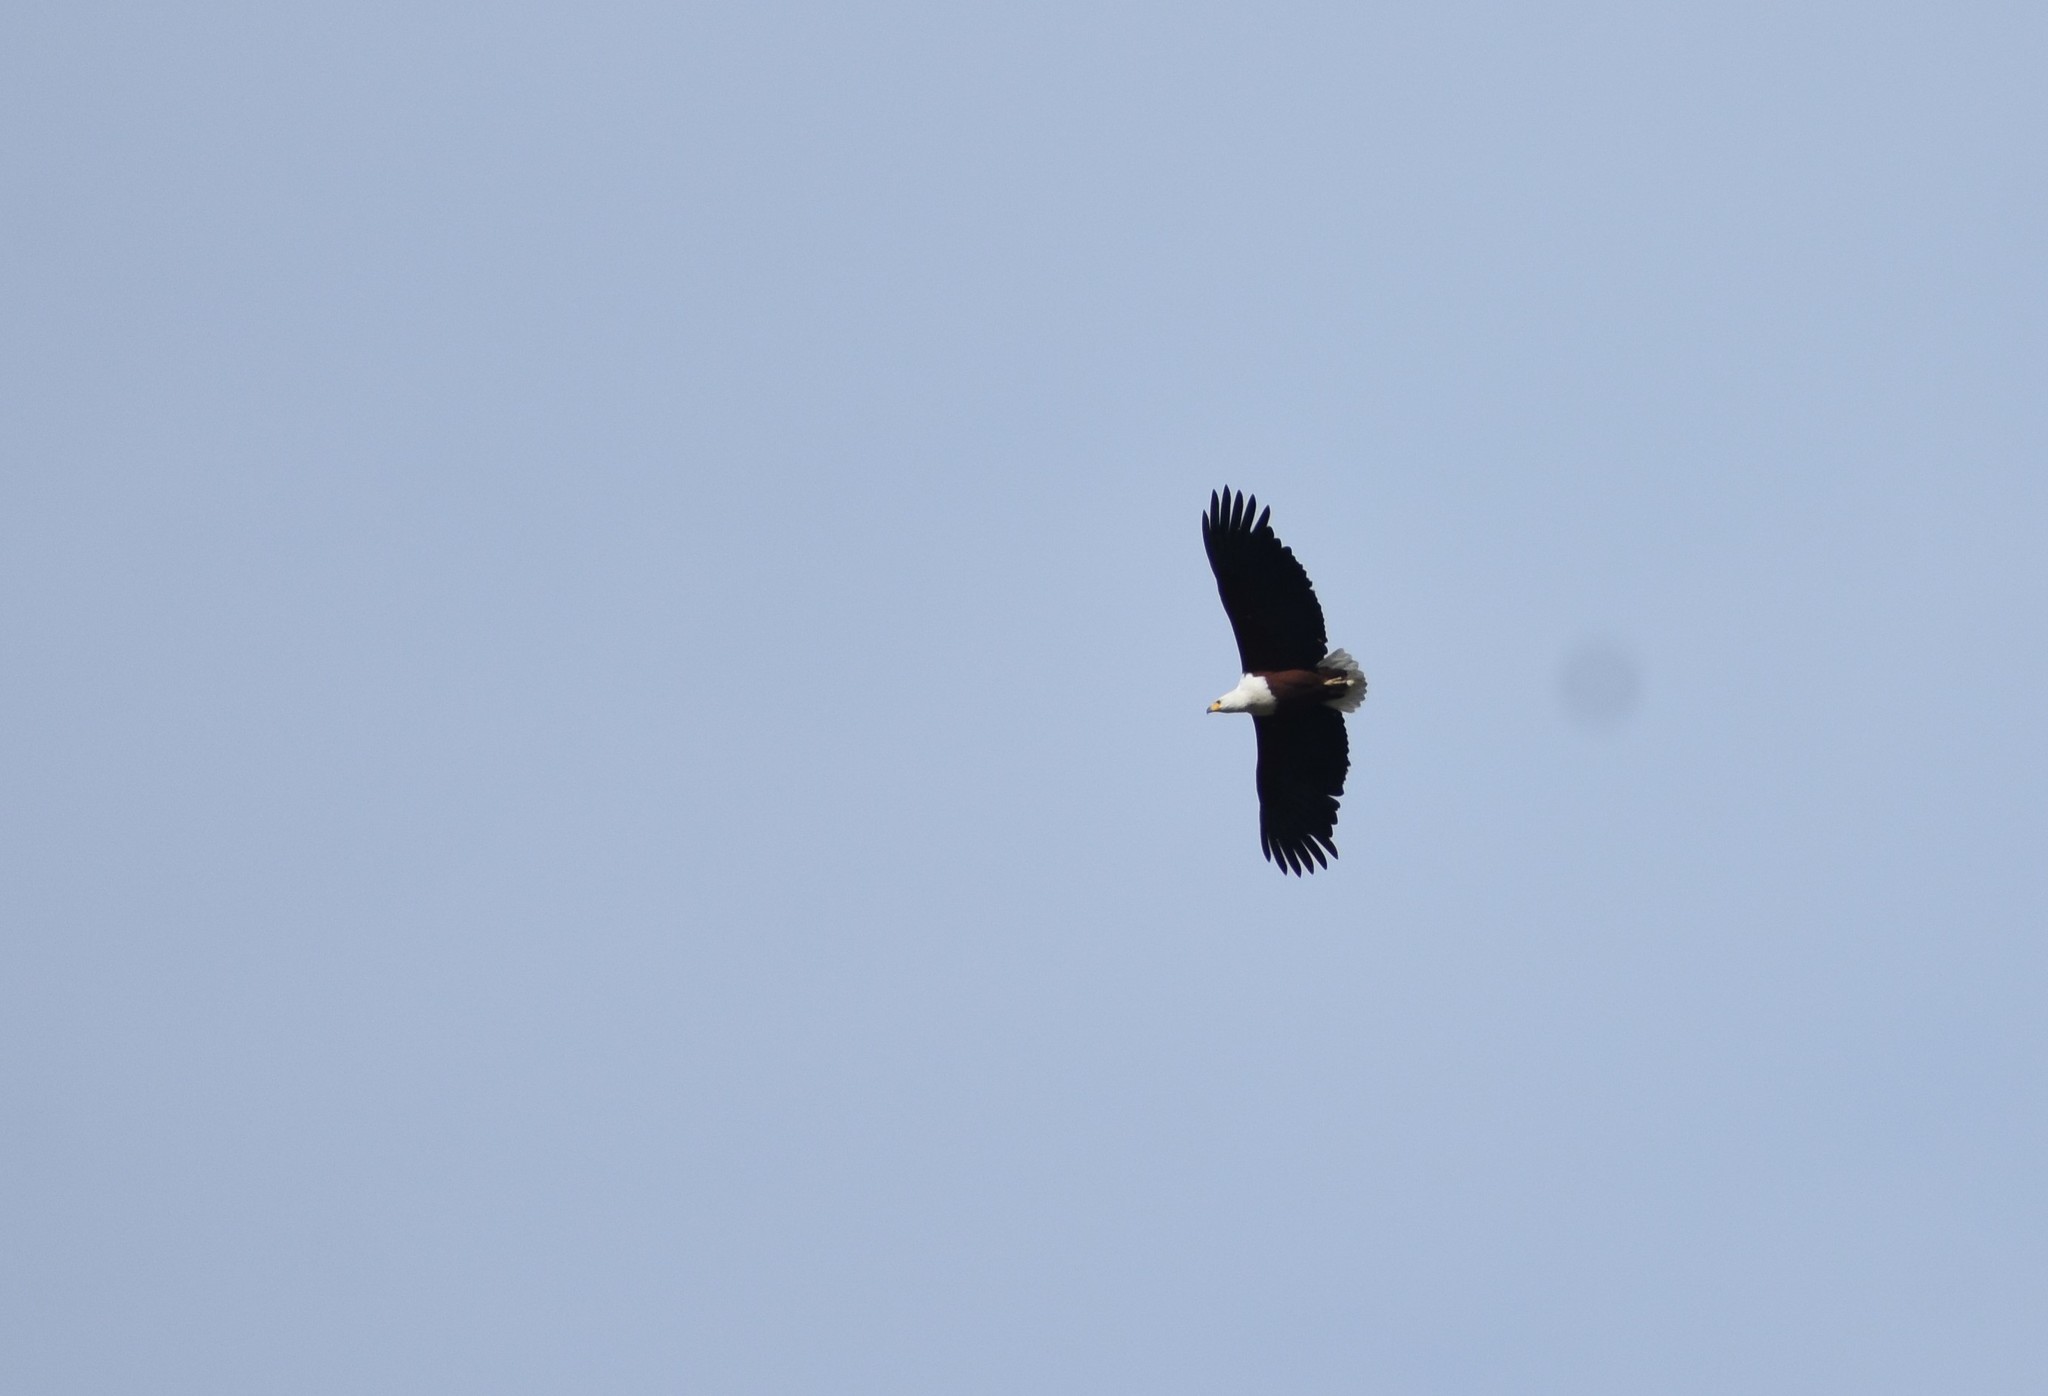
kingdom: Animalia
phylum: Chordata
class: Aves
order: Accipitriformes
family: Accipitridae
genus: Haliaeetus
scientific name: Haliaeetus vocifer
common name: African fish eagle
